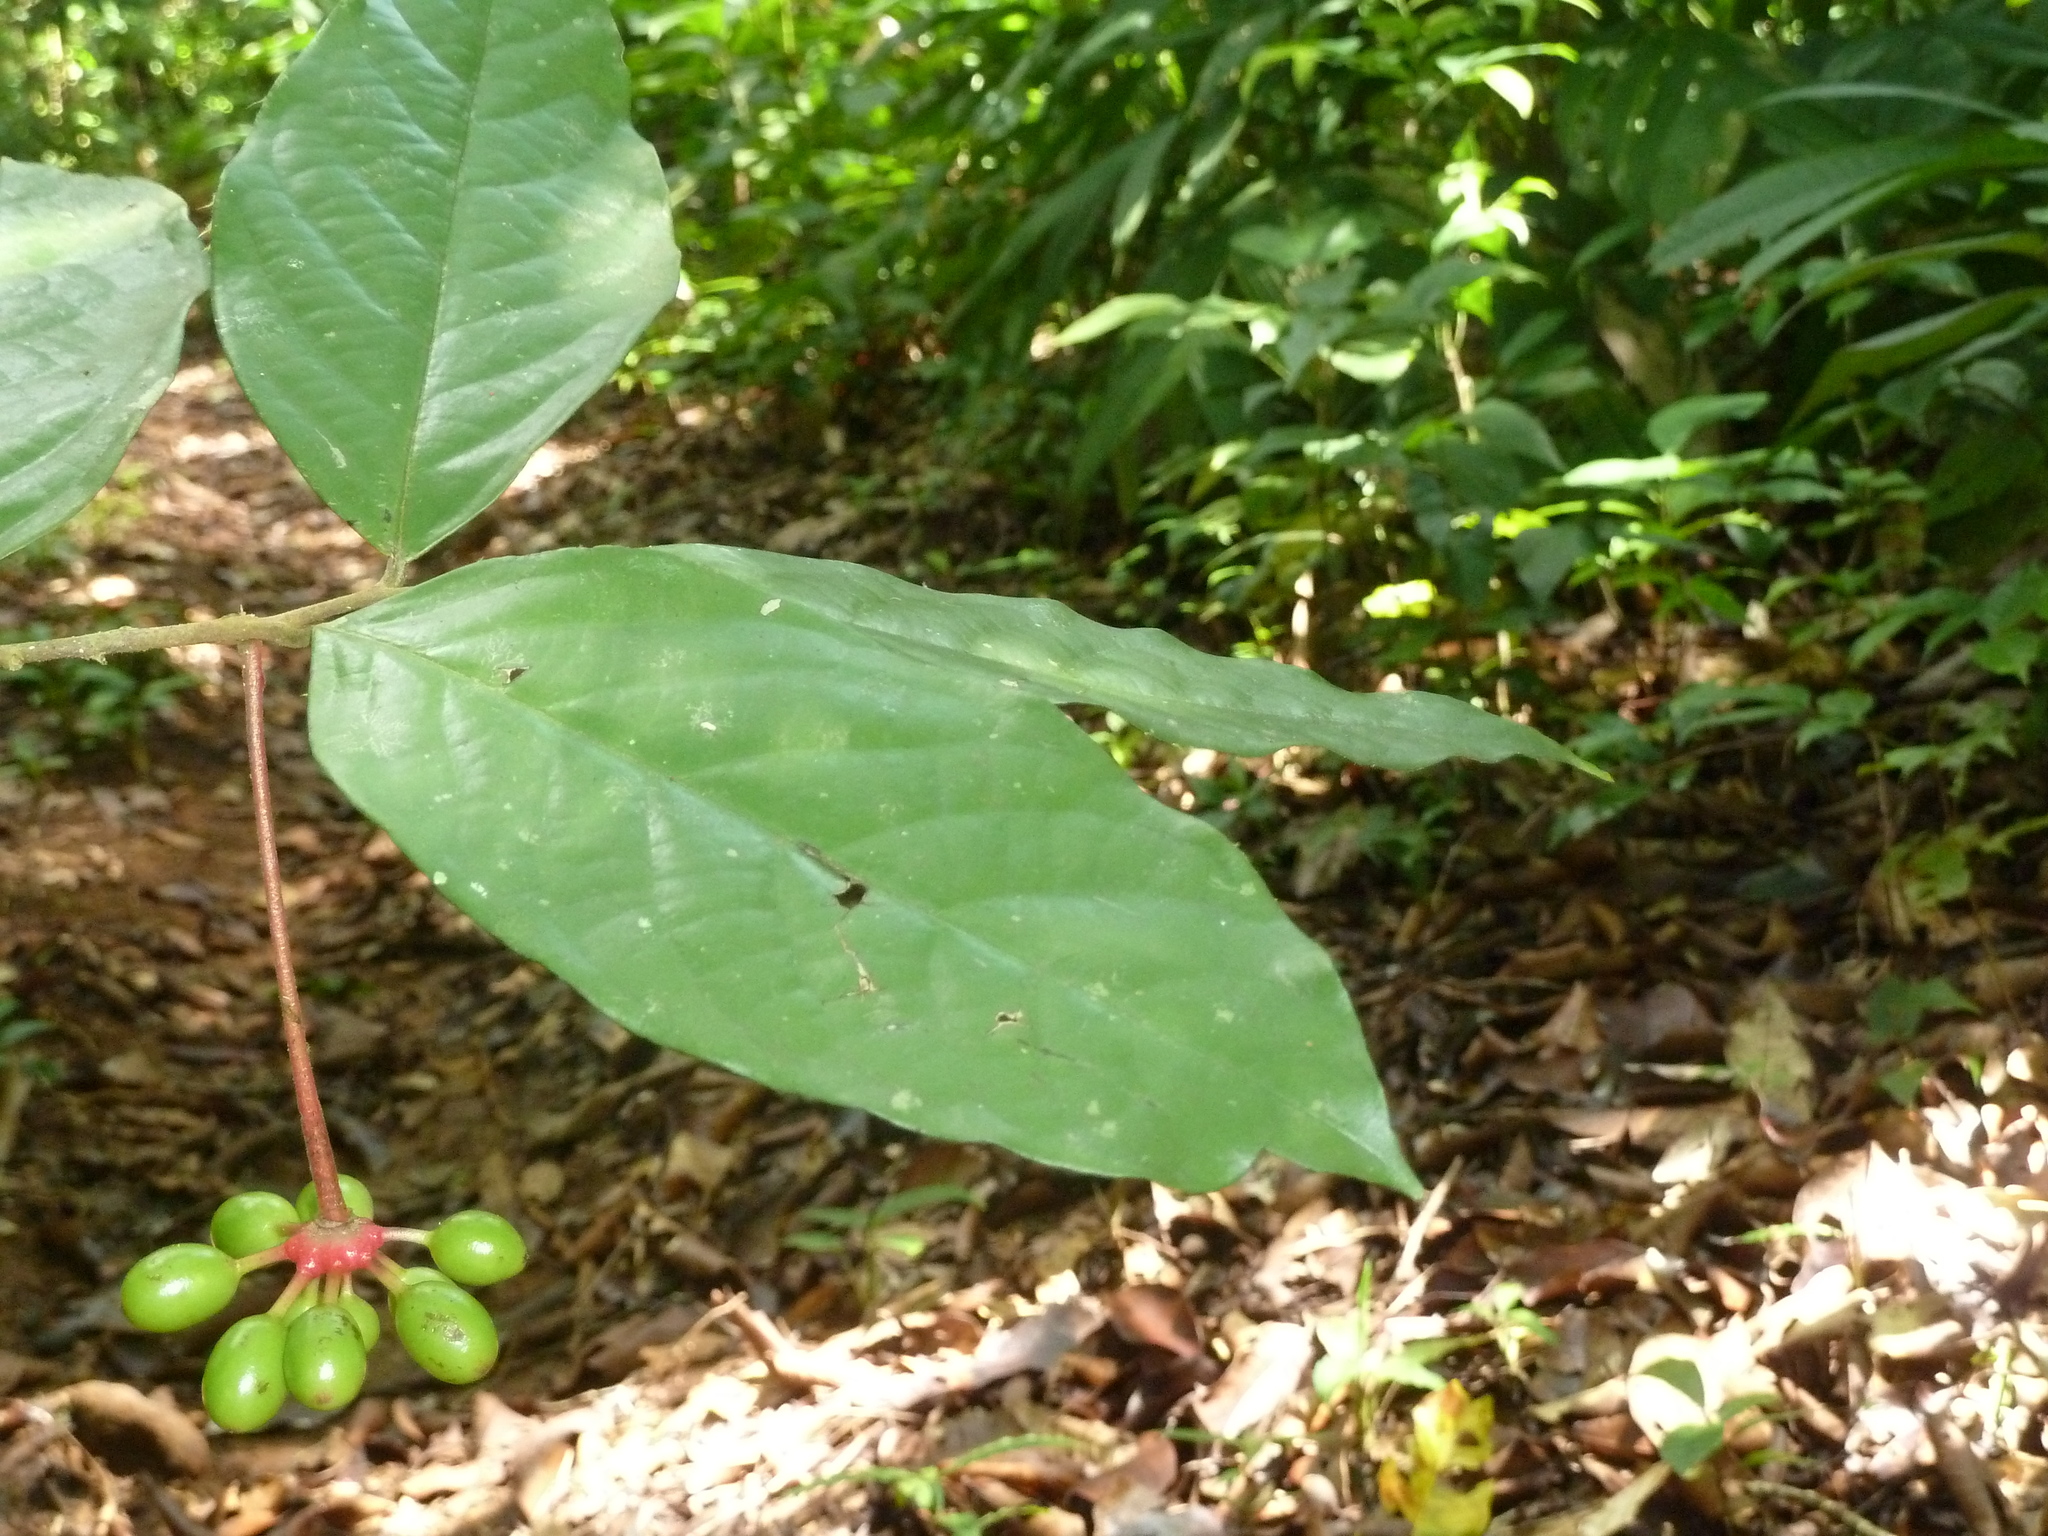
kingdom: Plantae
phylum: Tracheophyta
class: Magnoliopsida
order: Magnoliales
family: Annonaceae
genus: Desmopsis
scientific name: Desmopsis confusa
